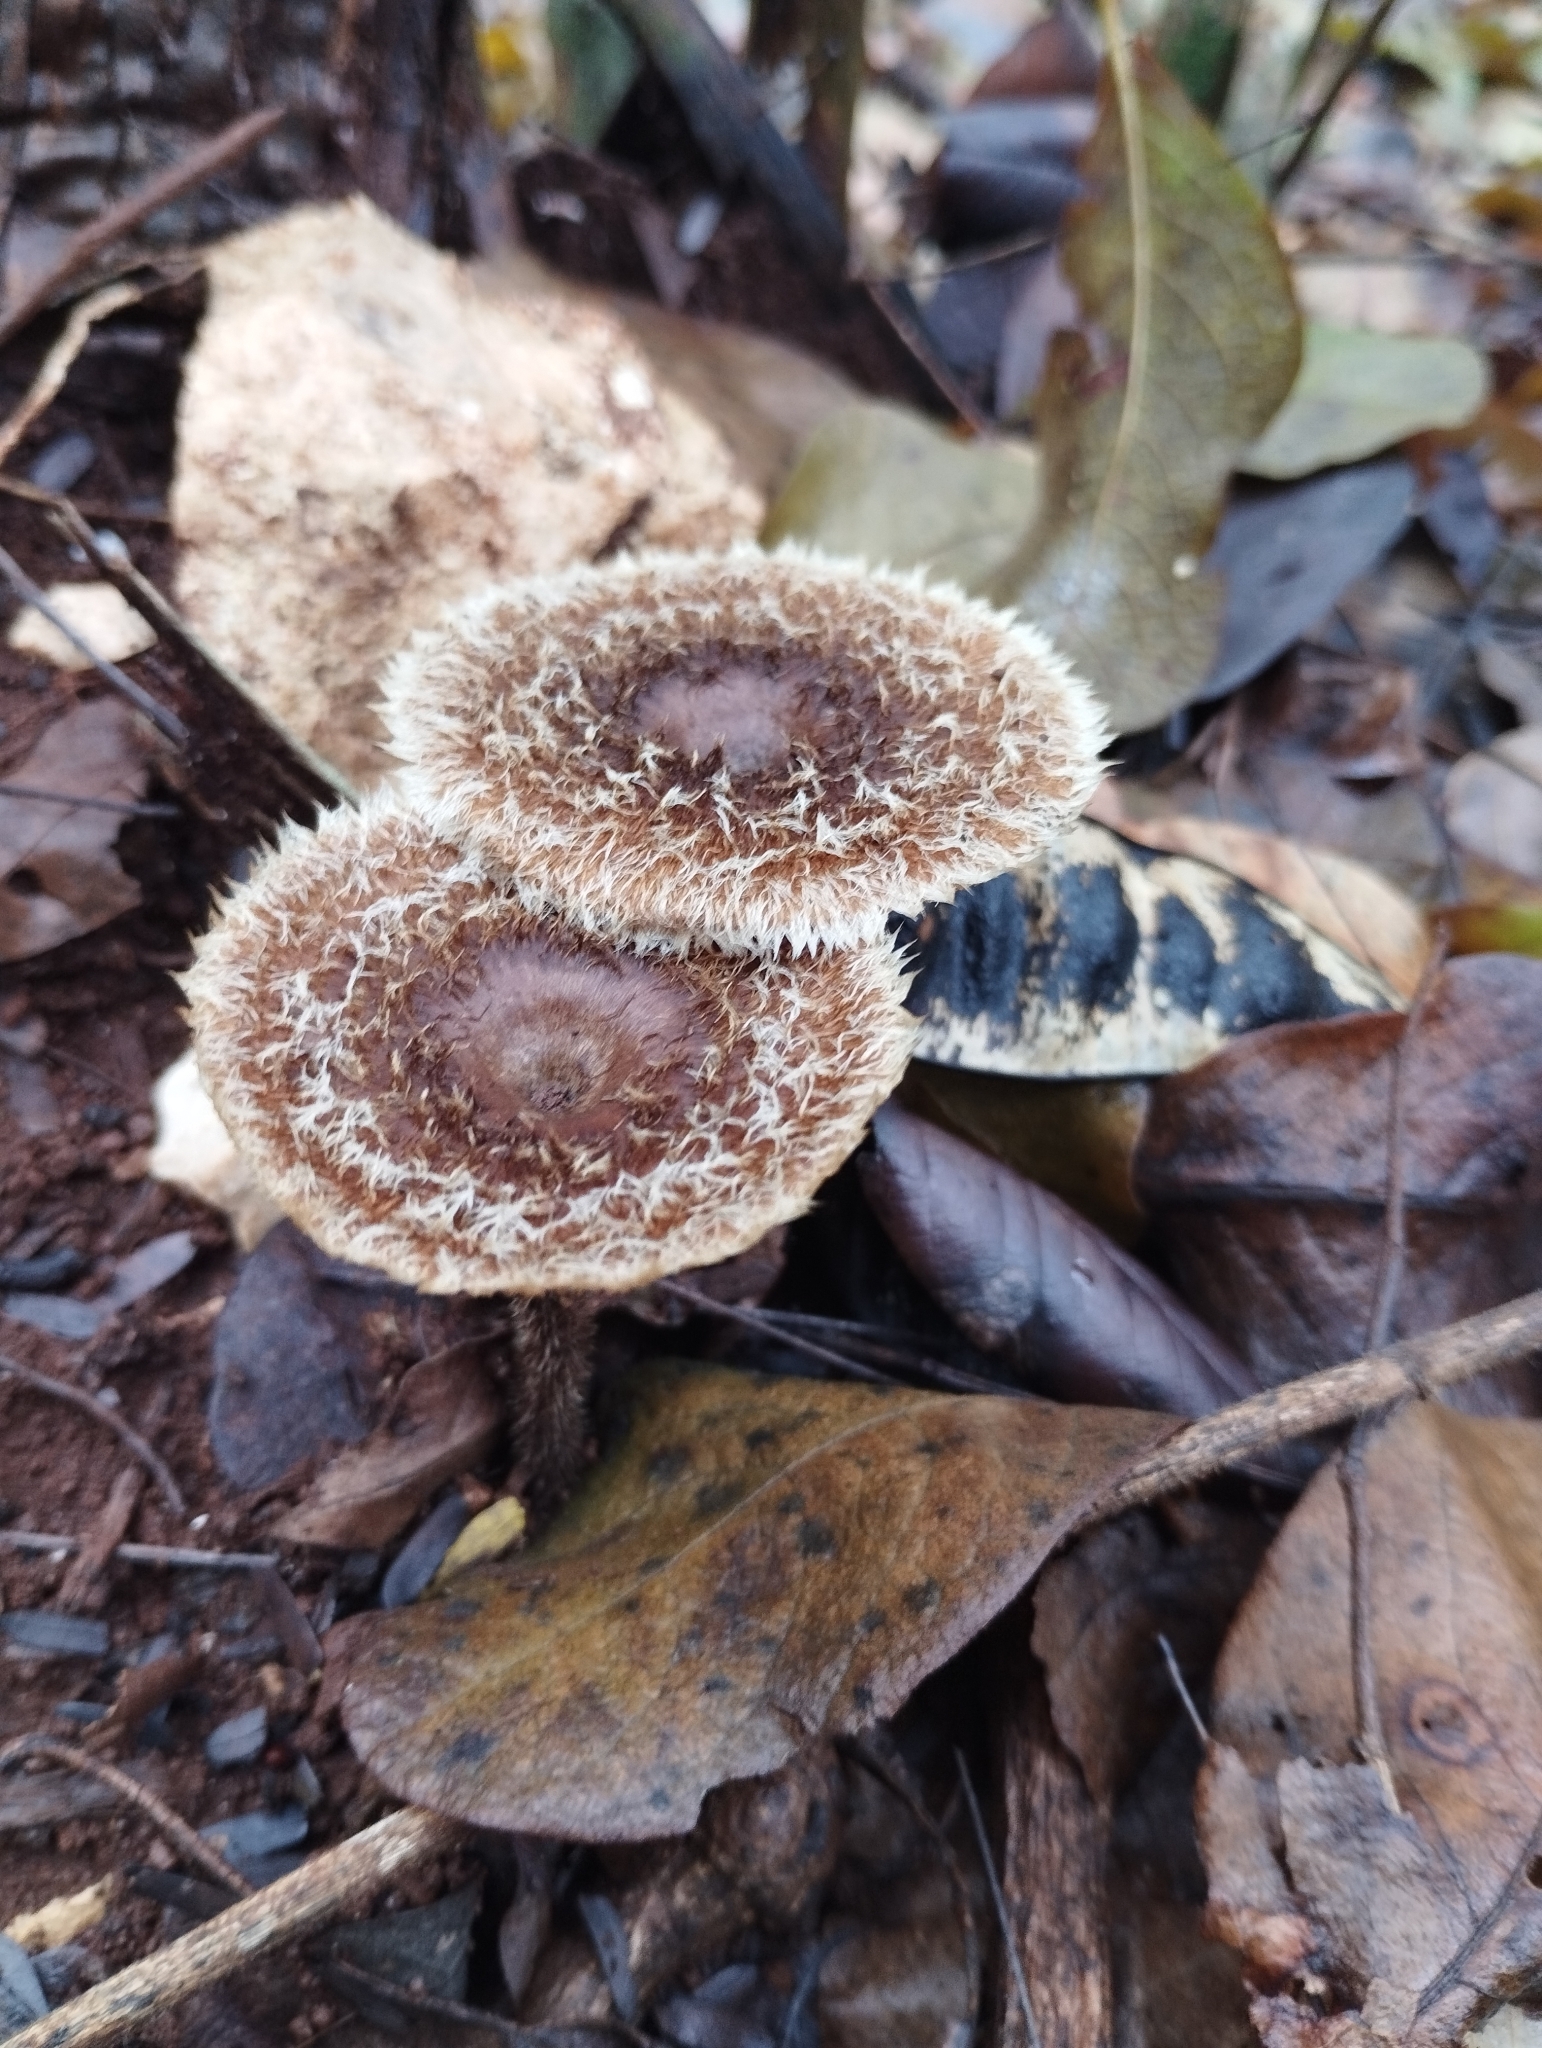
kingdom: Fungi
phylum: Basidiomycota
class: Agaricomycetes
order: Polyporales
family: Polyporaceae
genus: Lentinus
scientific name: Lentinus crinitus
